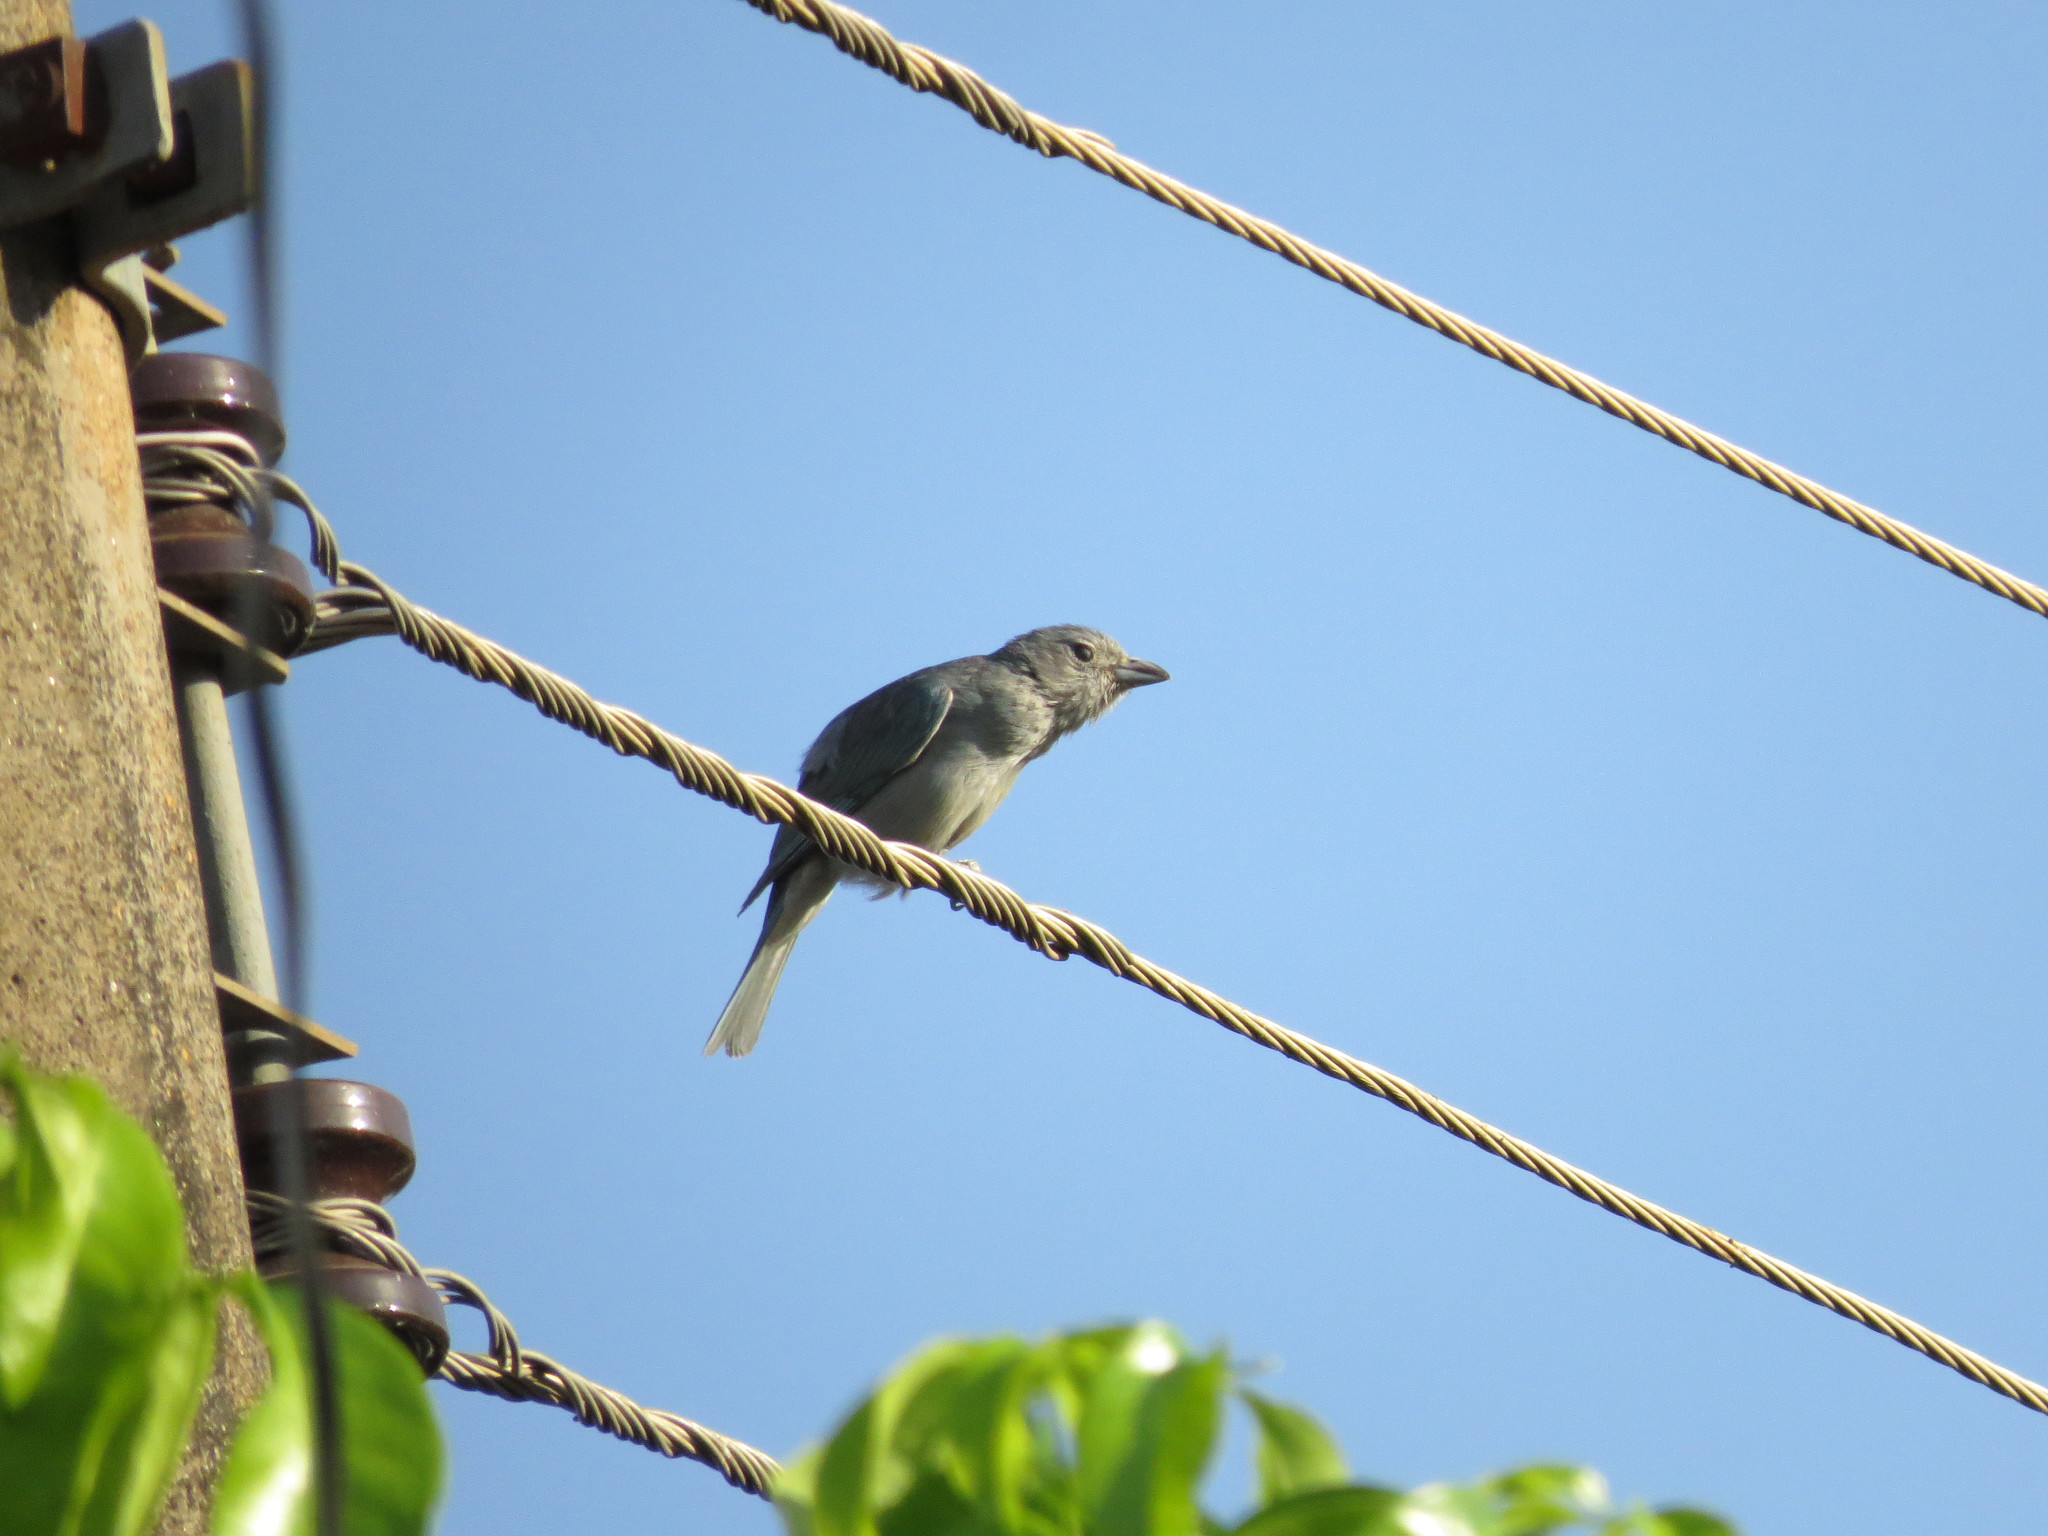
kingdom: Animalia
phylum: Chordata
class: Aves
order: Passeriformes
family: Thraupidae
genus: Thraupis
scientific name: Thraupis sayaca
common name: Sayaca tanager
